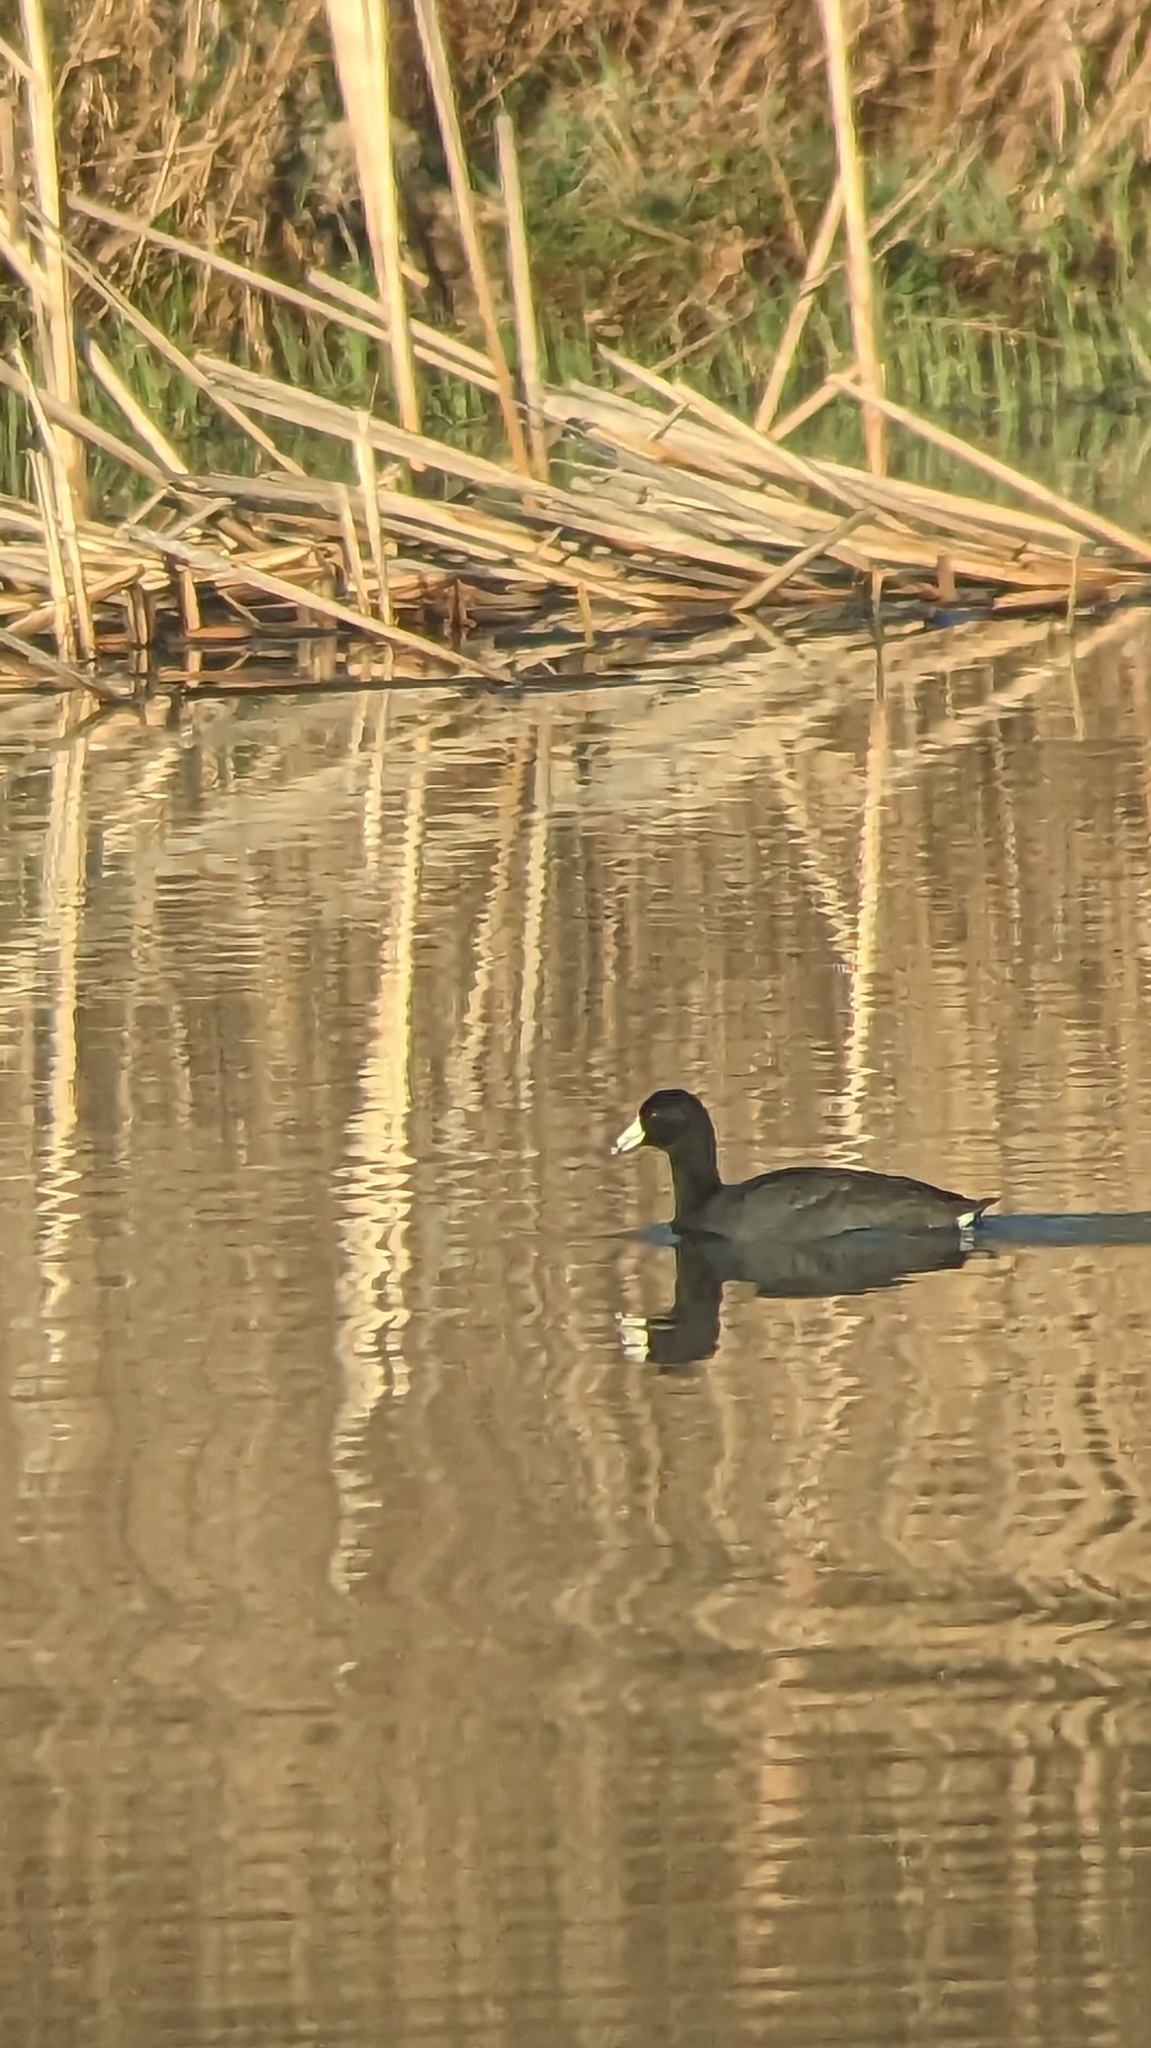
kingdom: Animalia
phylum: Chordata
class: Aves
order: Gruiformes
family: Rallidae
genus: Fulica
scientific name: Fulica americana
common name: American coot
